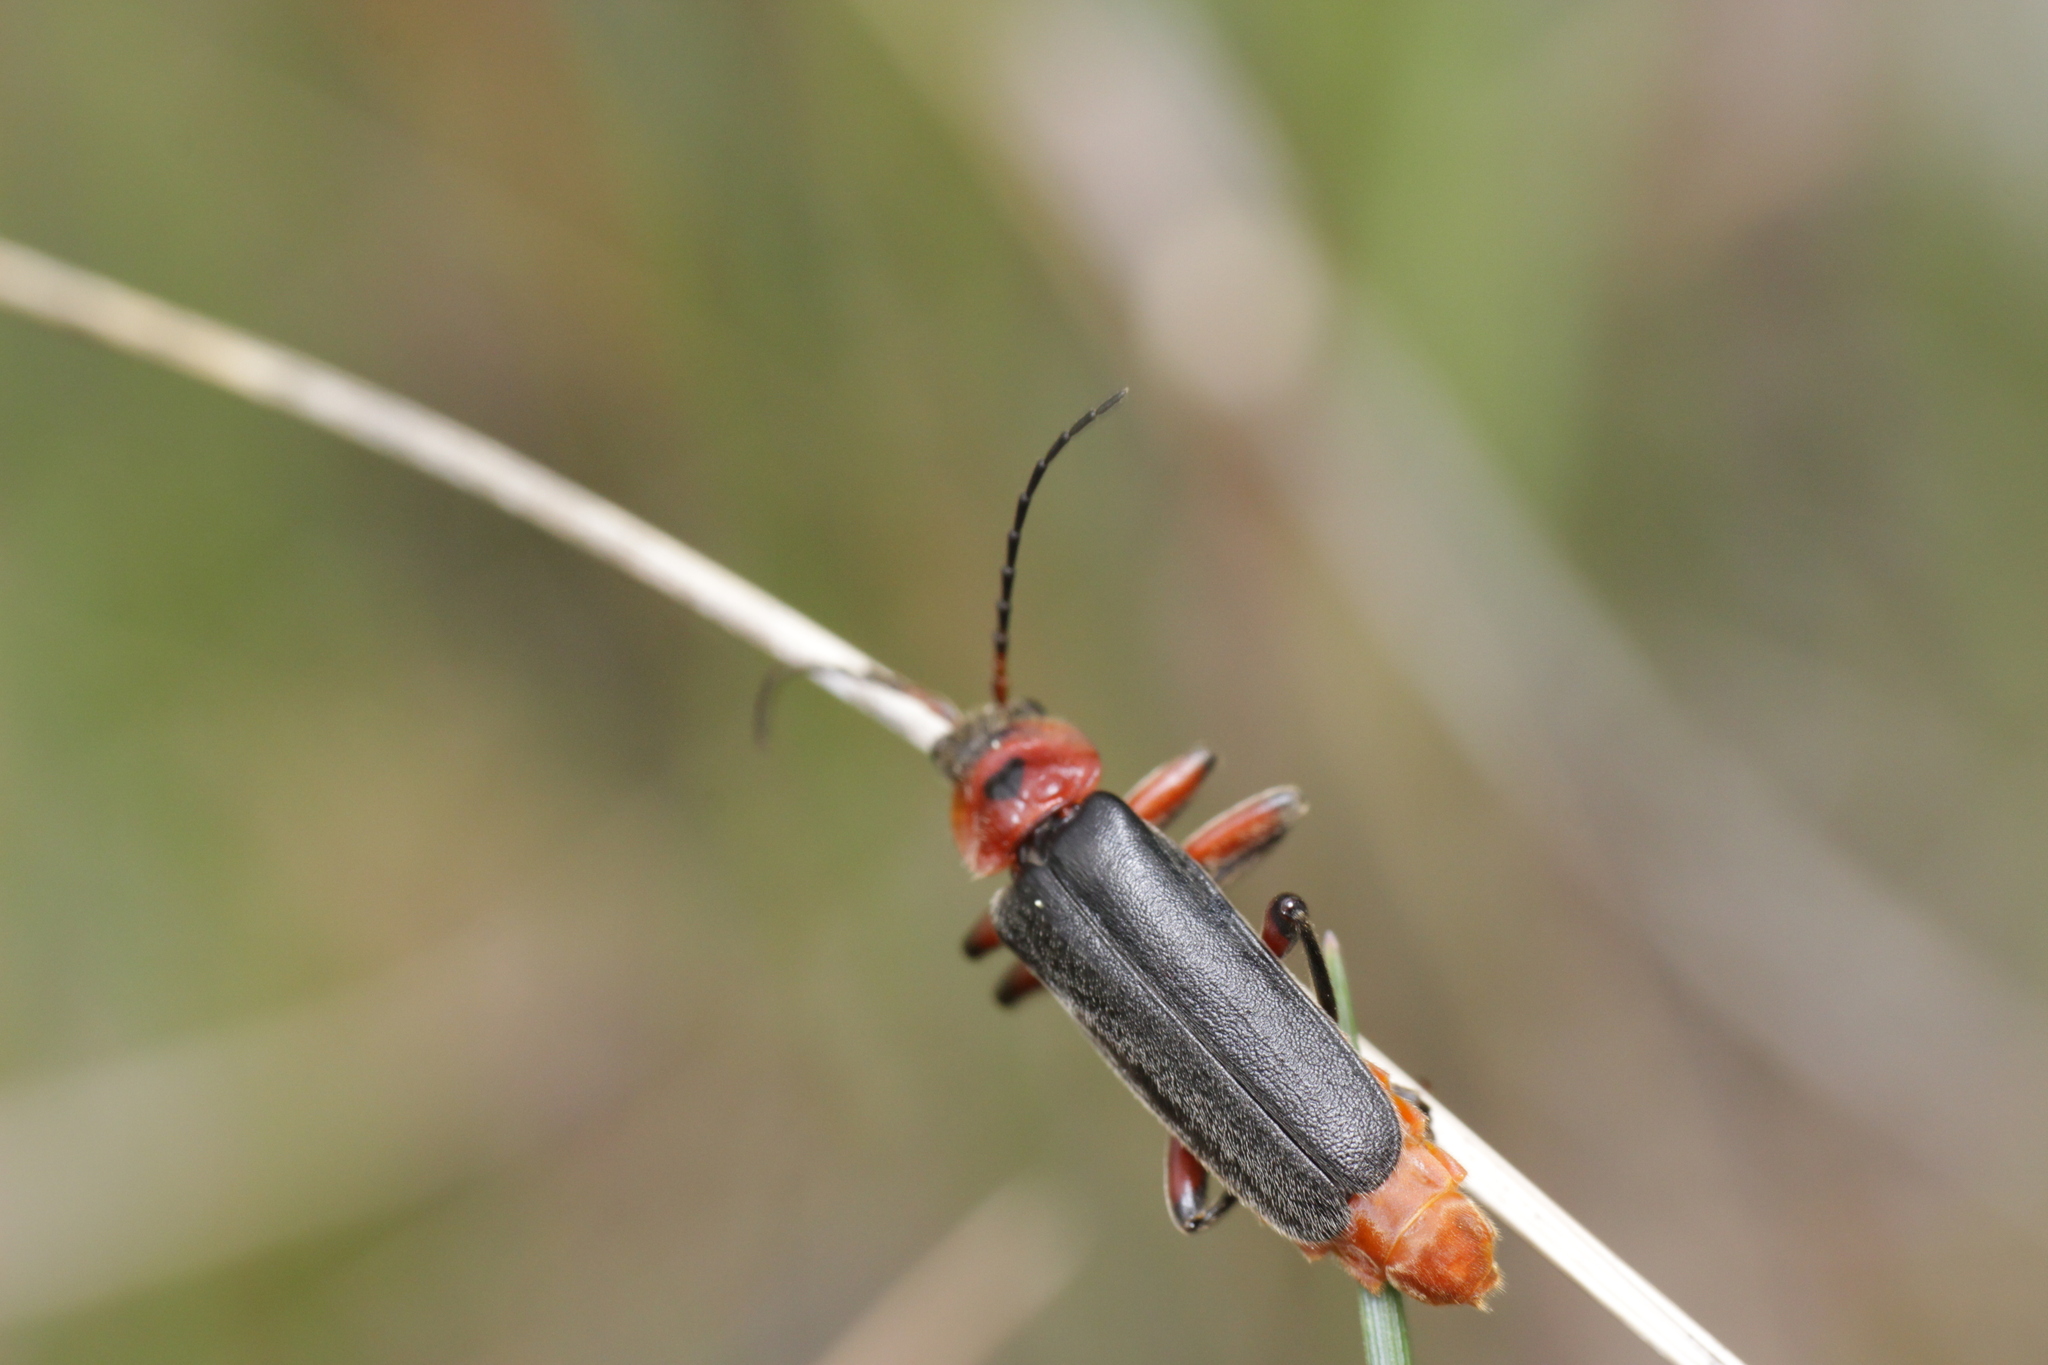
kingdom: Animalia
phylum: Arthropoda
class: Insecta
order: Coleoptera
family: Cantharidae
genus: Cantharis
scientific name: Cantharis rustica
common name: Soldier beetle
